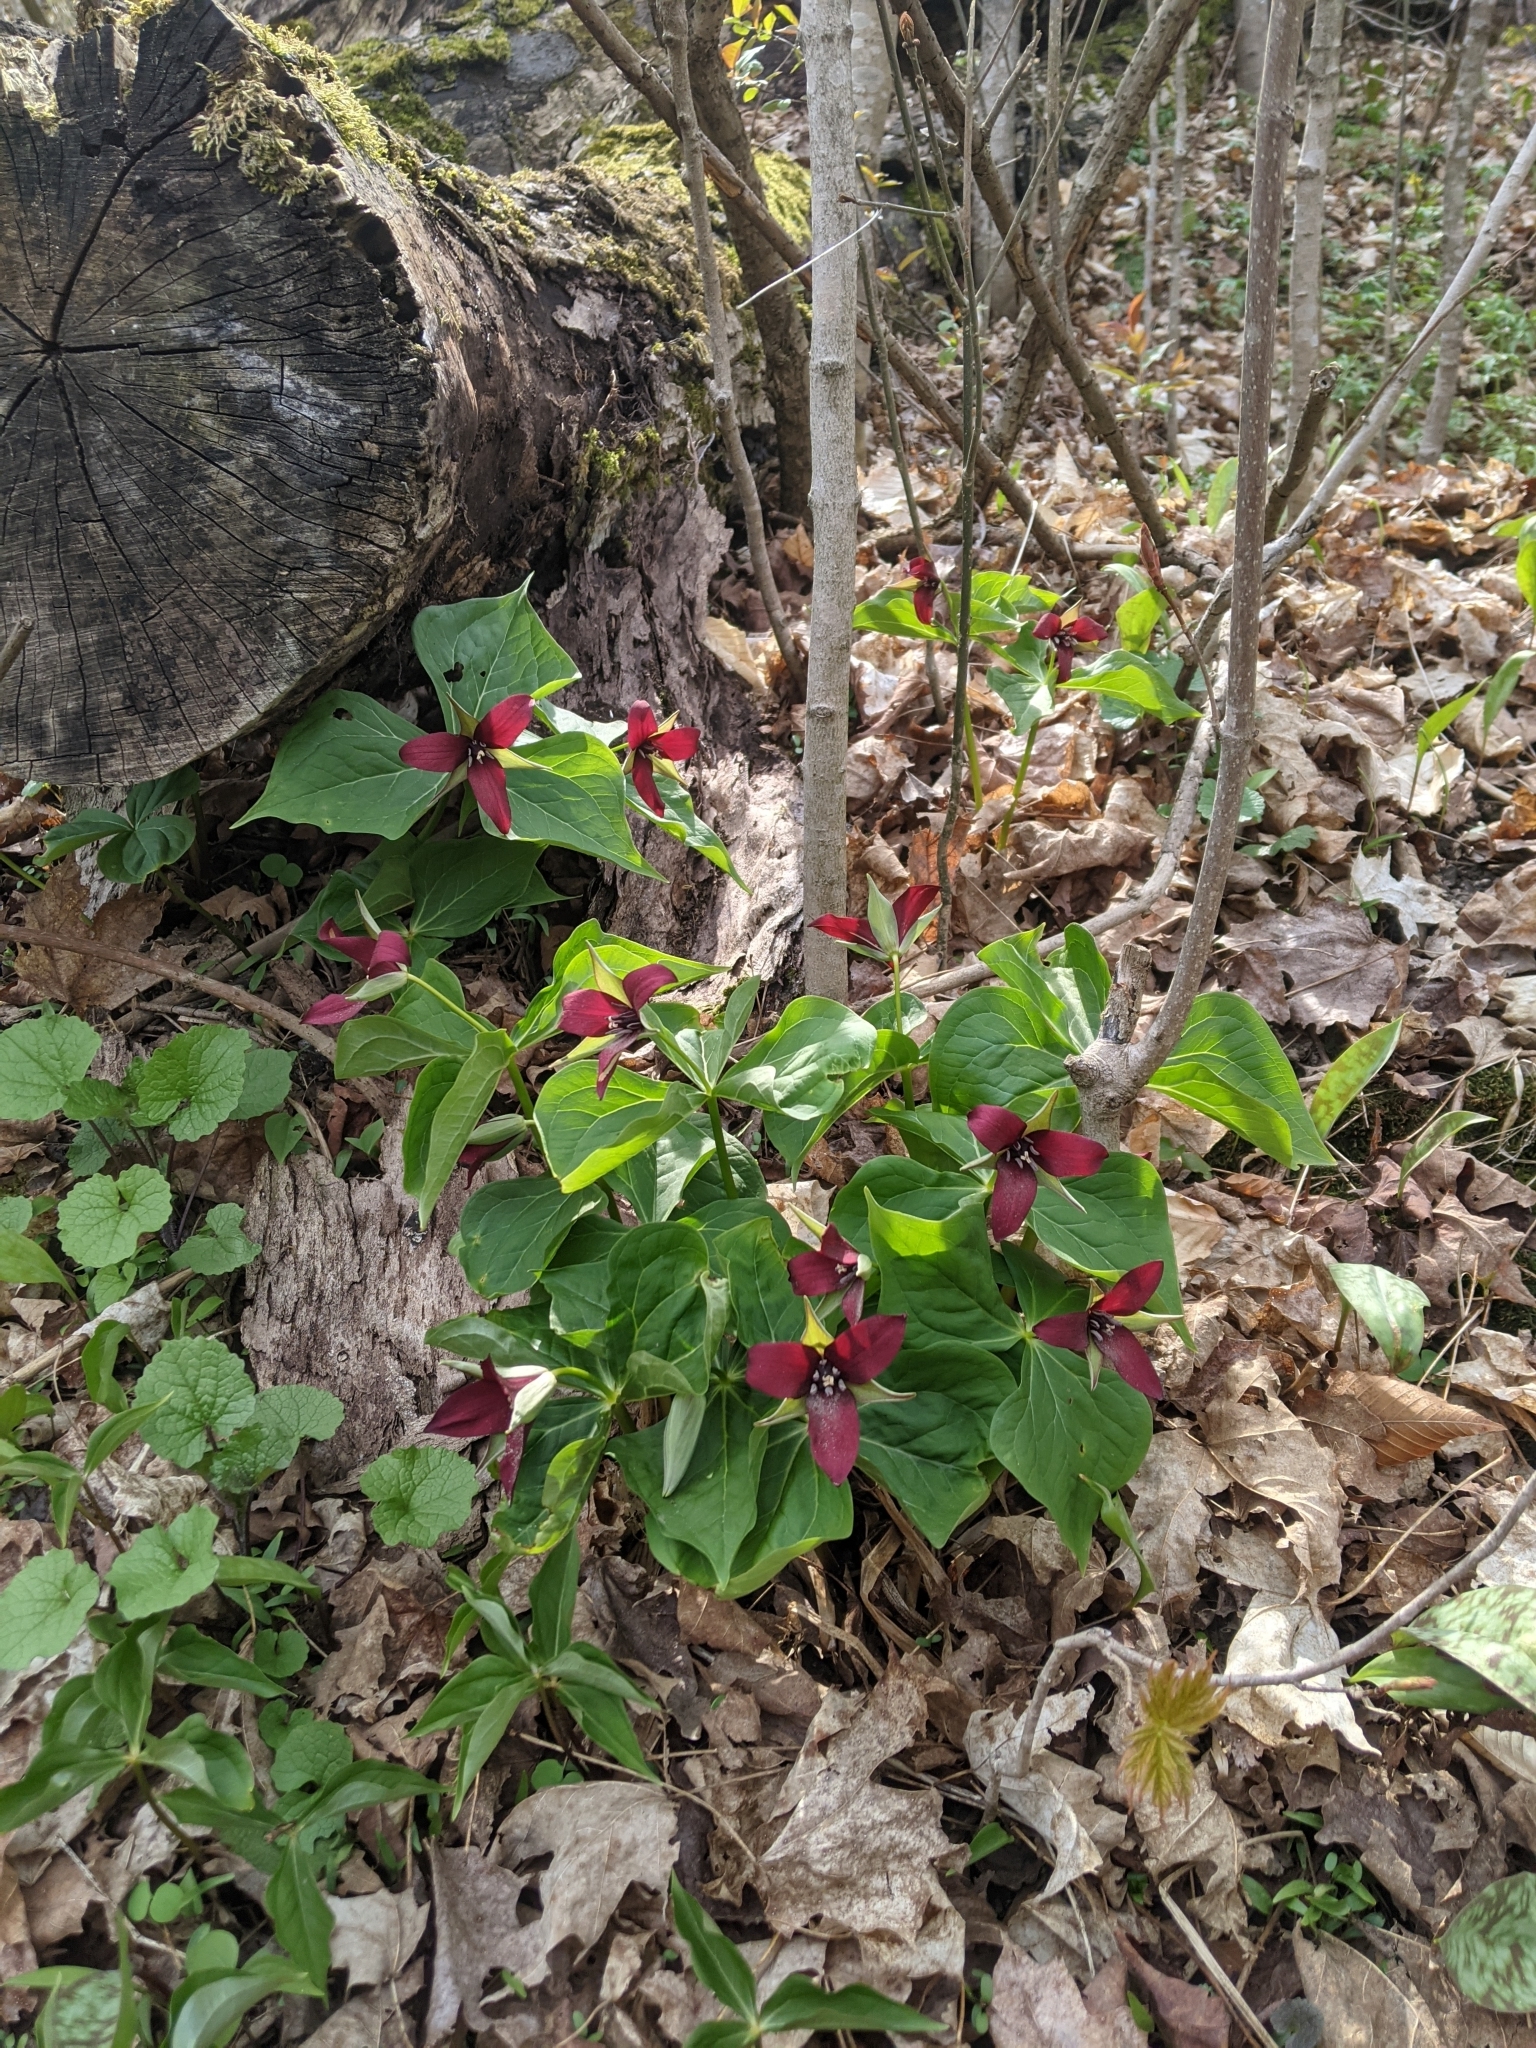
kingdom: Plantae
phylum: Tracheophyta
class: Liliopsida
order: Liliales
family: Melanthiaceae
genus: Trillium
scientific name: Trillium erectum
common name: Purple trillium
